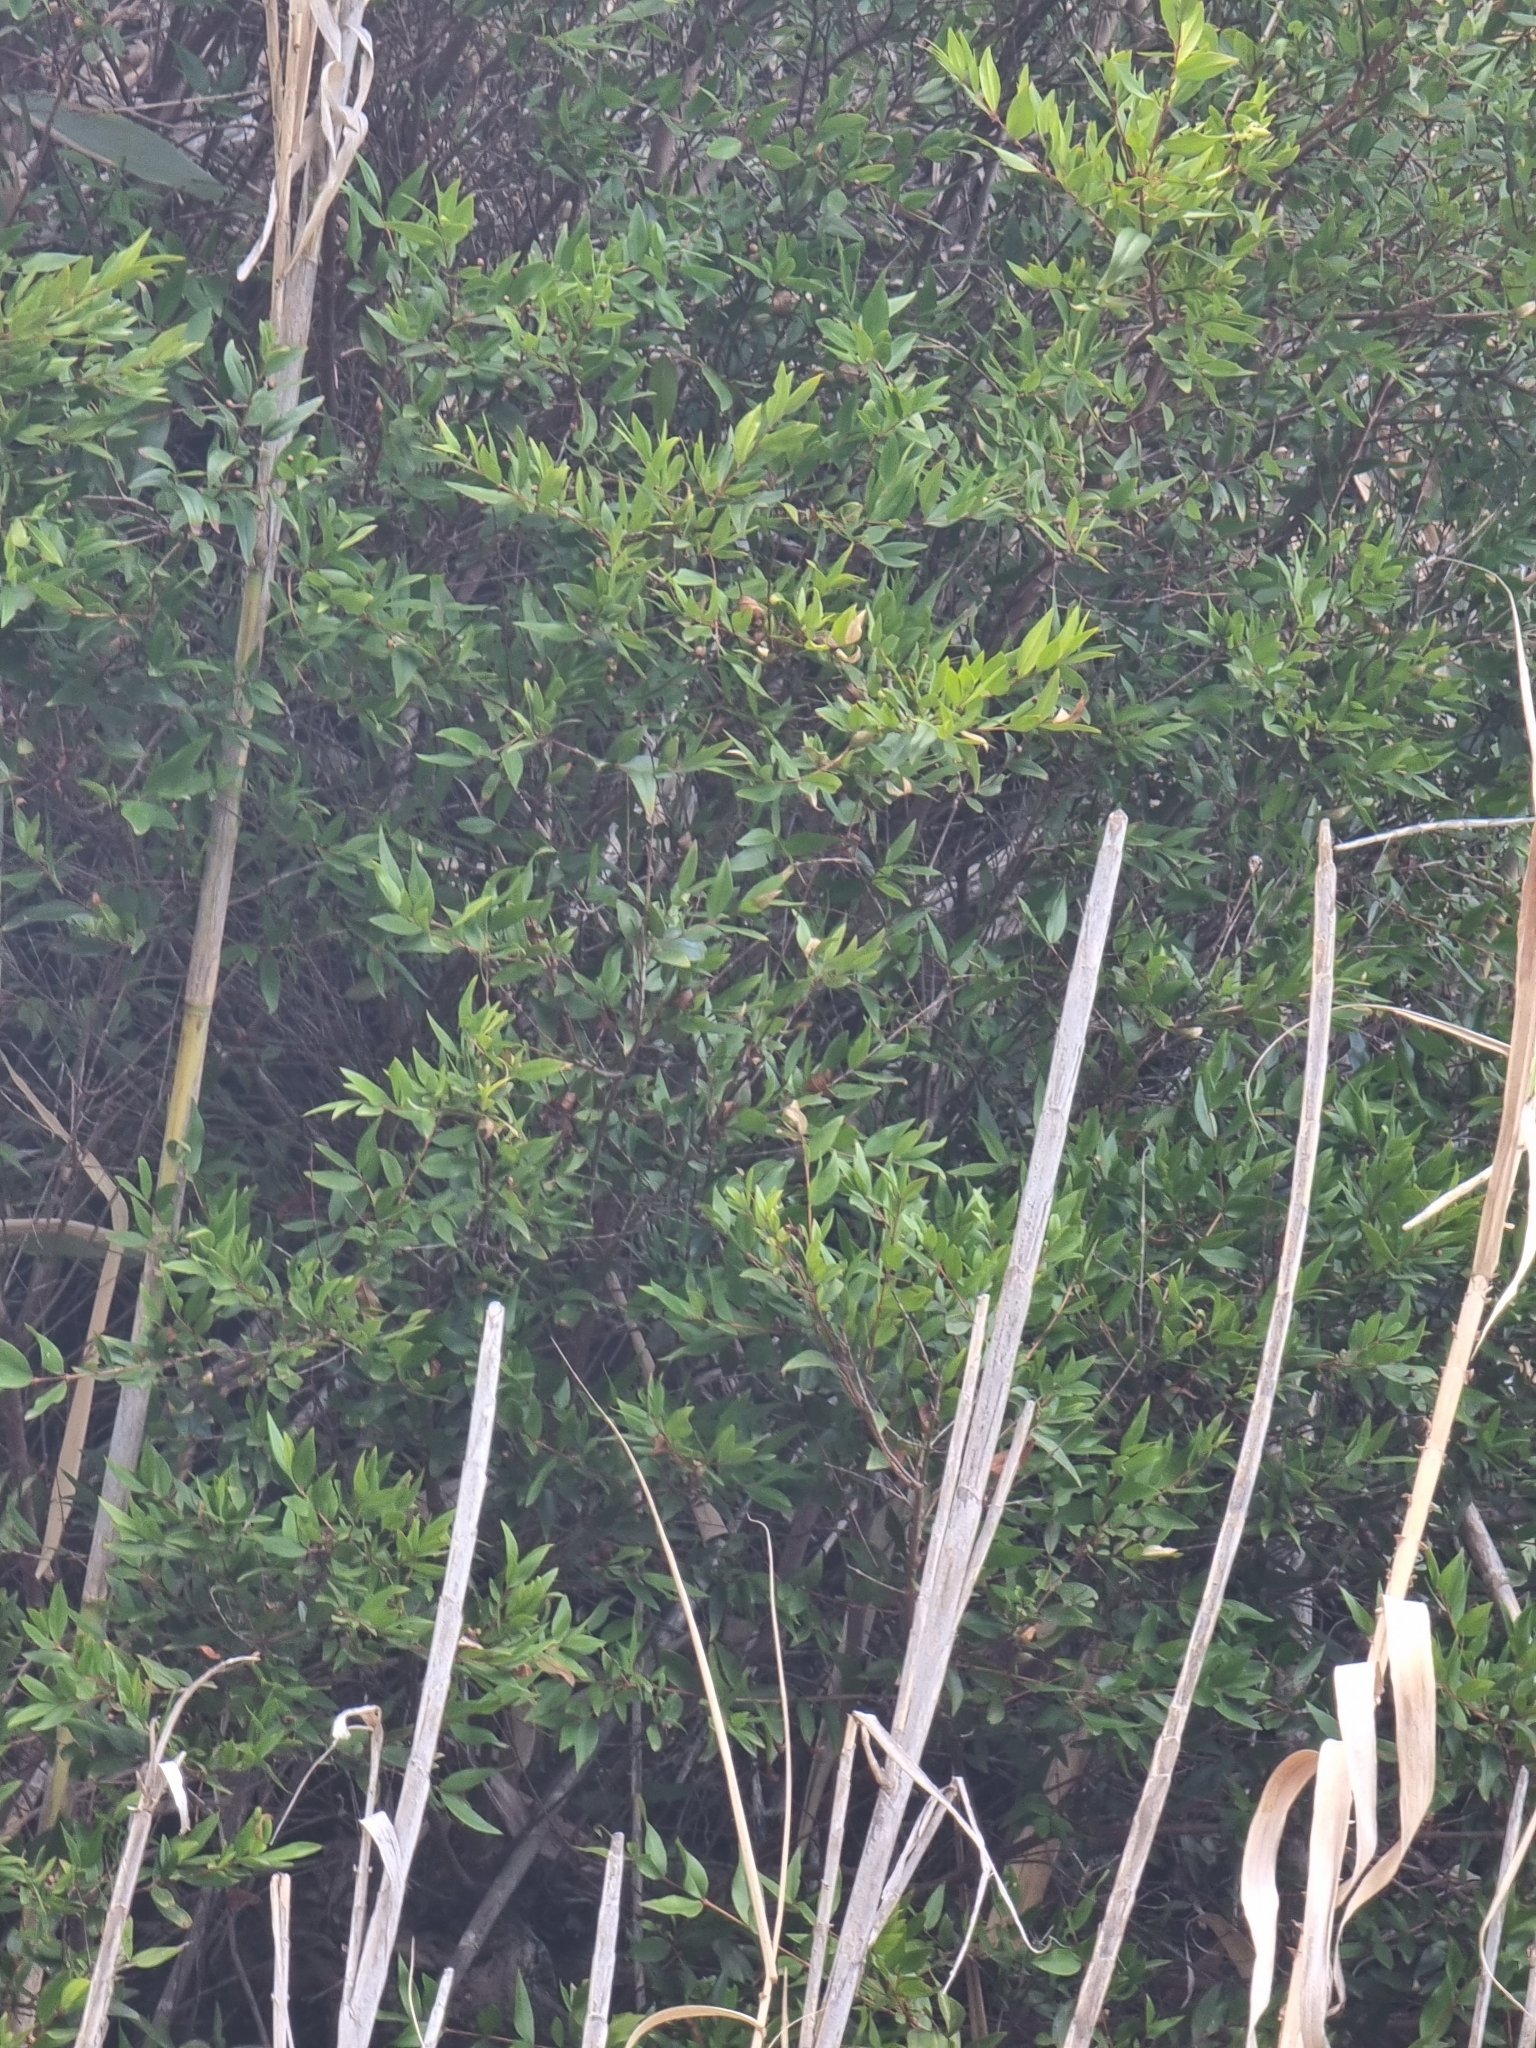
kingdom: Plantae
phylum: Tracheophyta
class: Magnoliopsida
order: Myrtales
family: Myrtaceae
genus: Myrtus
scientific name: Myrtus communis
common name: Myrtle
